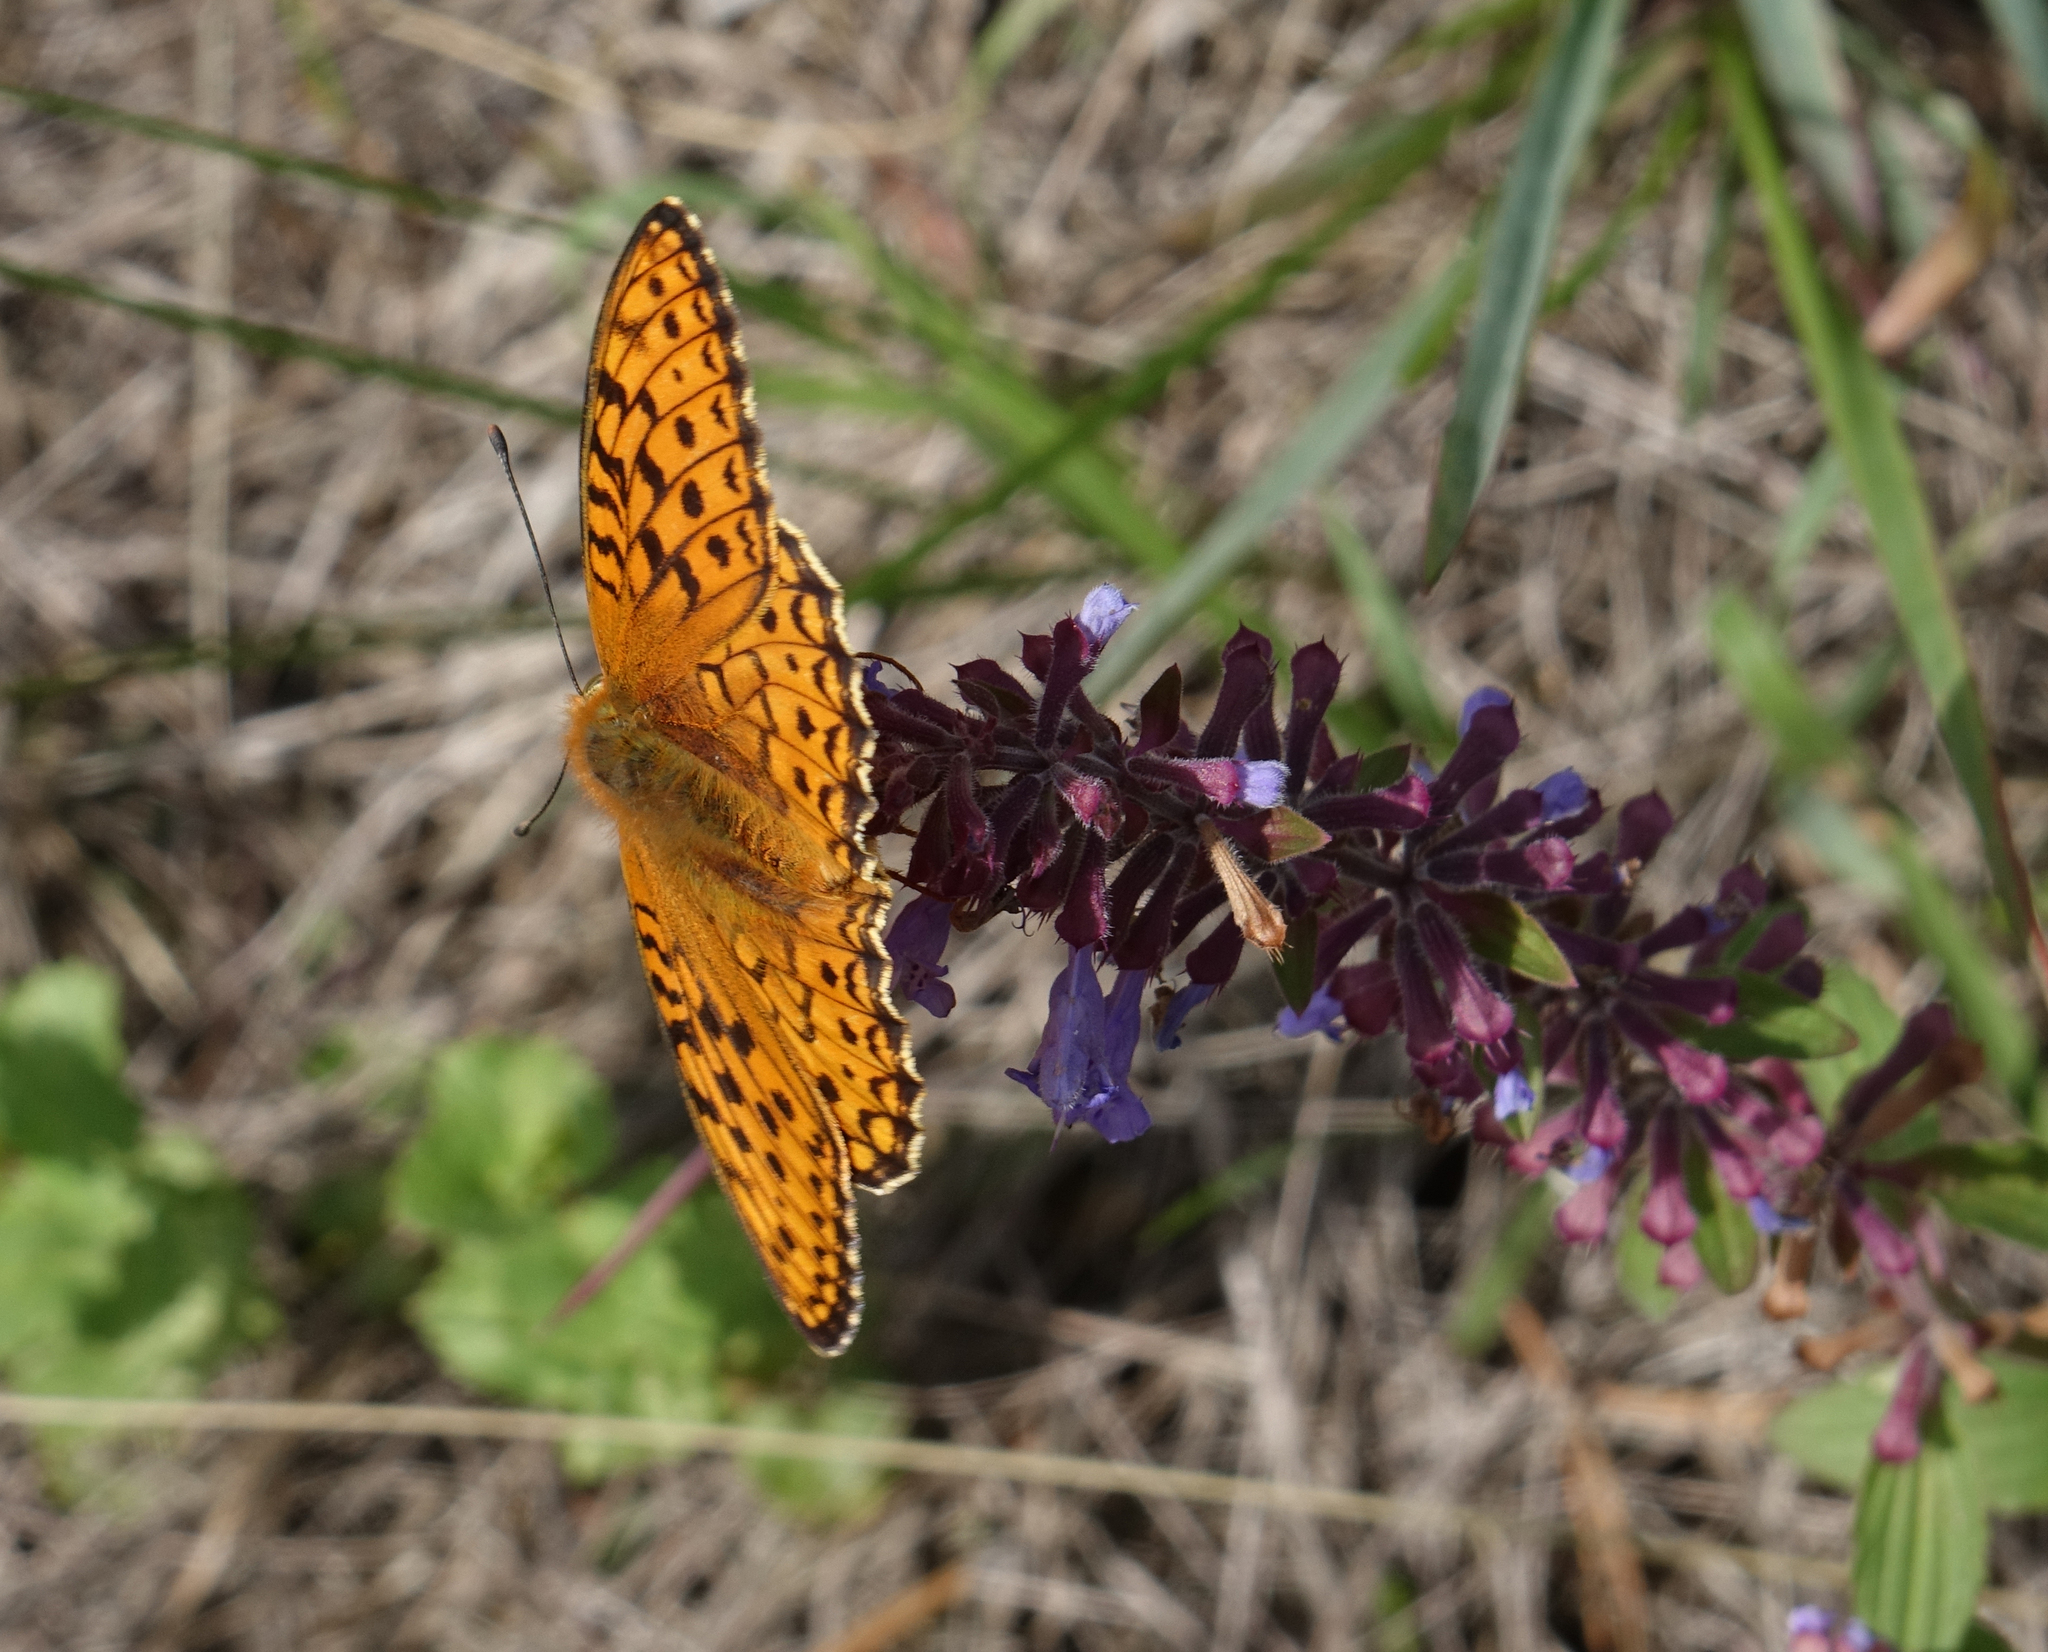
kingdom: Animalia
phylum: Arthropoda
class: Insecta
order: Lepidoptera
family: Nymphalidae
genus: Fabriciana
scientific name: Fabriciana niobe
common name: Niobe fritillary
